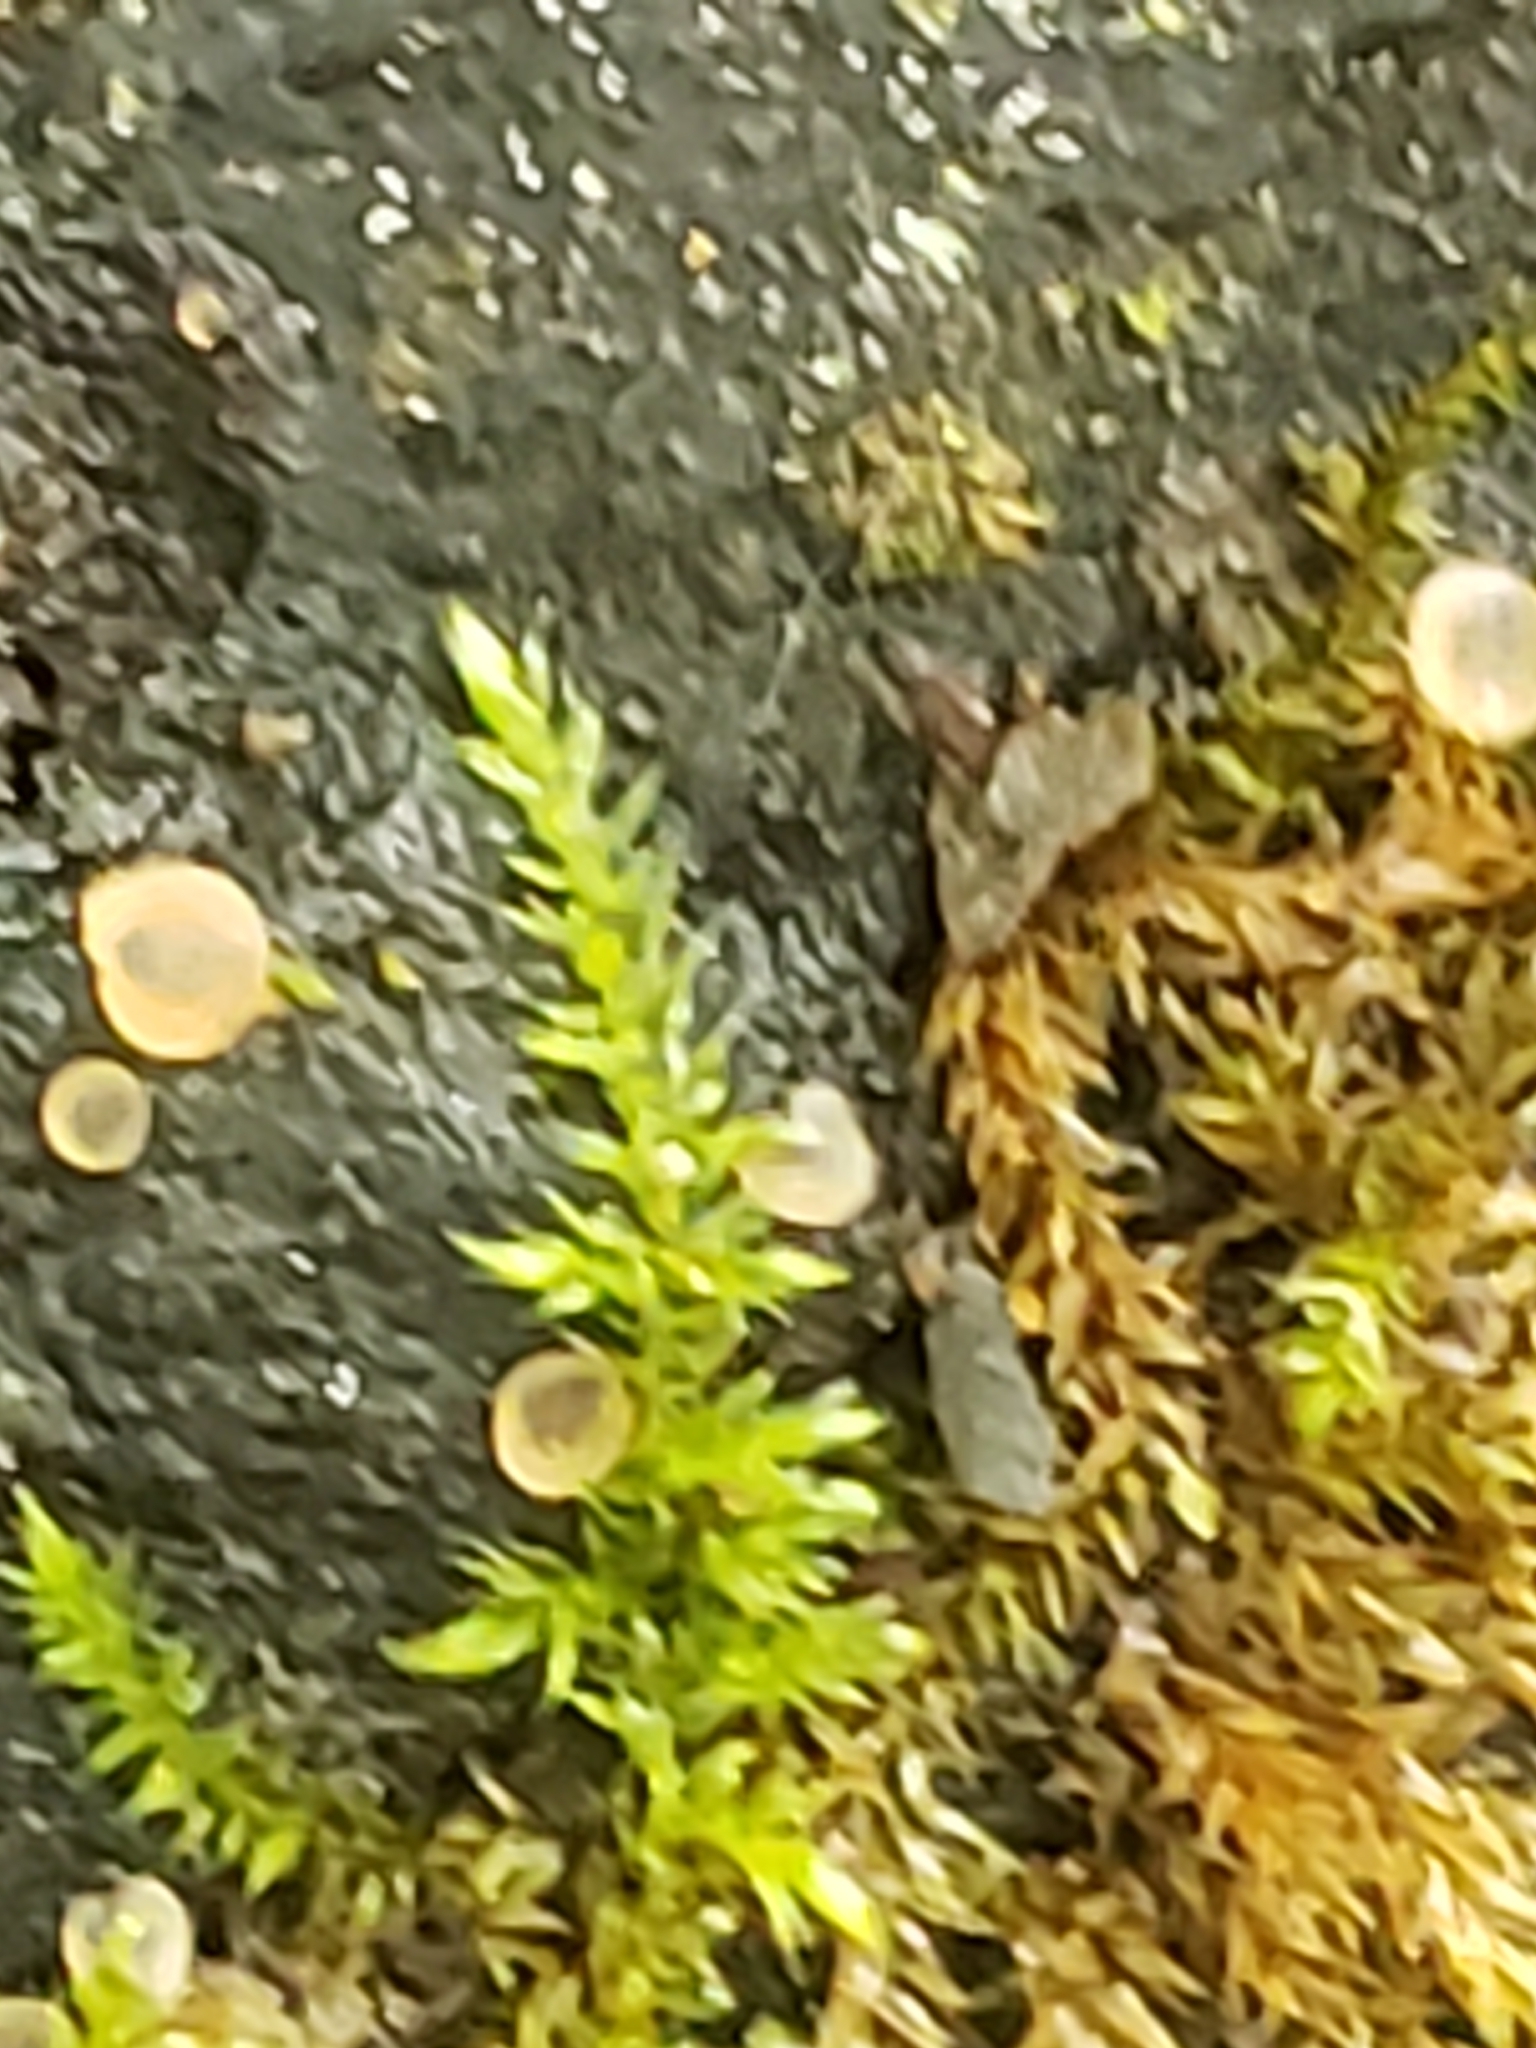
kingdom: Fungi
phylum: Ascomycota
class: Orbiliomycetes
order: Orbiliales
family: Orbiliaceae
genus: Orbilia
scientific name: Orbilia
